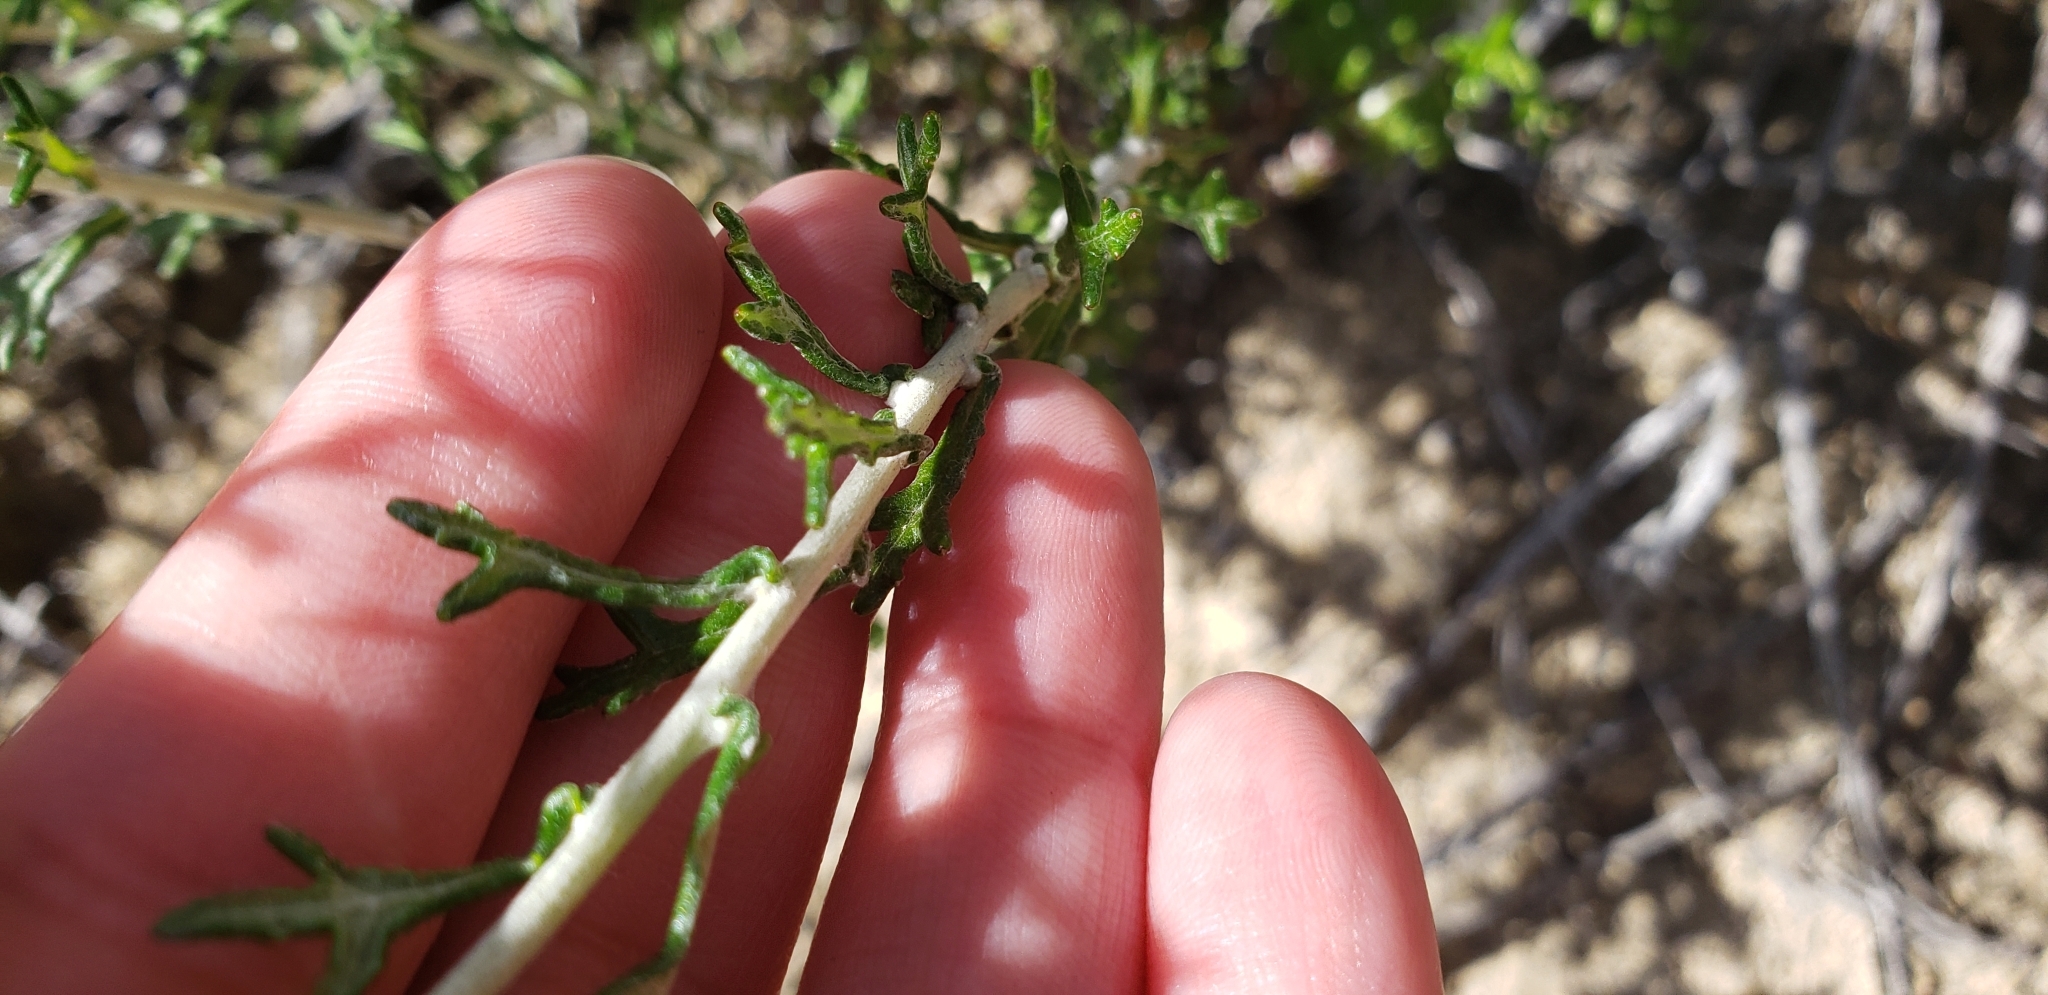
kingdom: Plantae
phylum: Tracheophyta
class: Magnoliopsida
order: Asterales
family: Asteraceae
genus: Eriophyllum
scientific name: Eriophyllum confertiflorum
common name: Golden-yarrow
